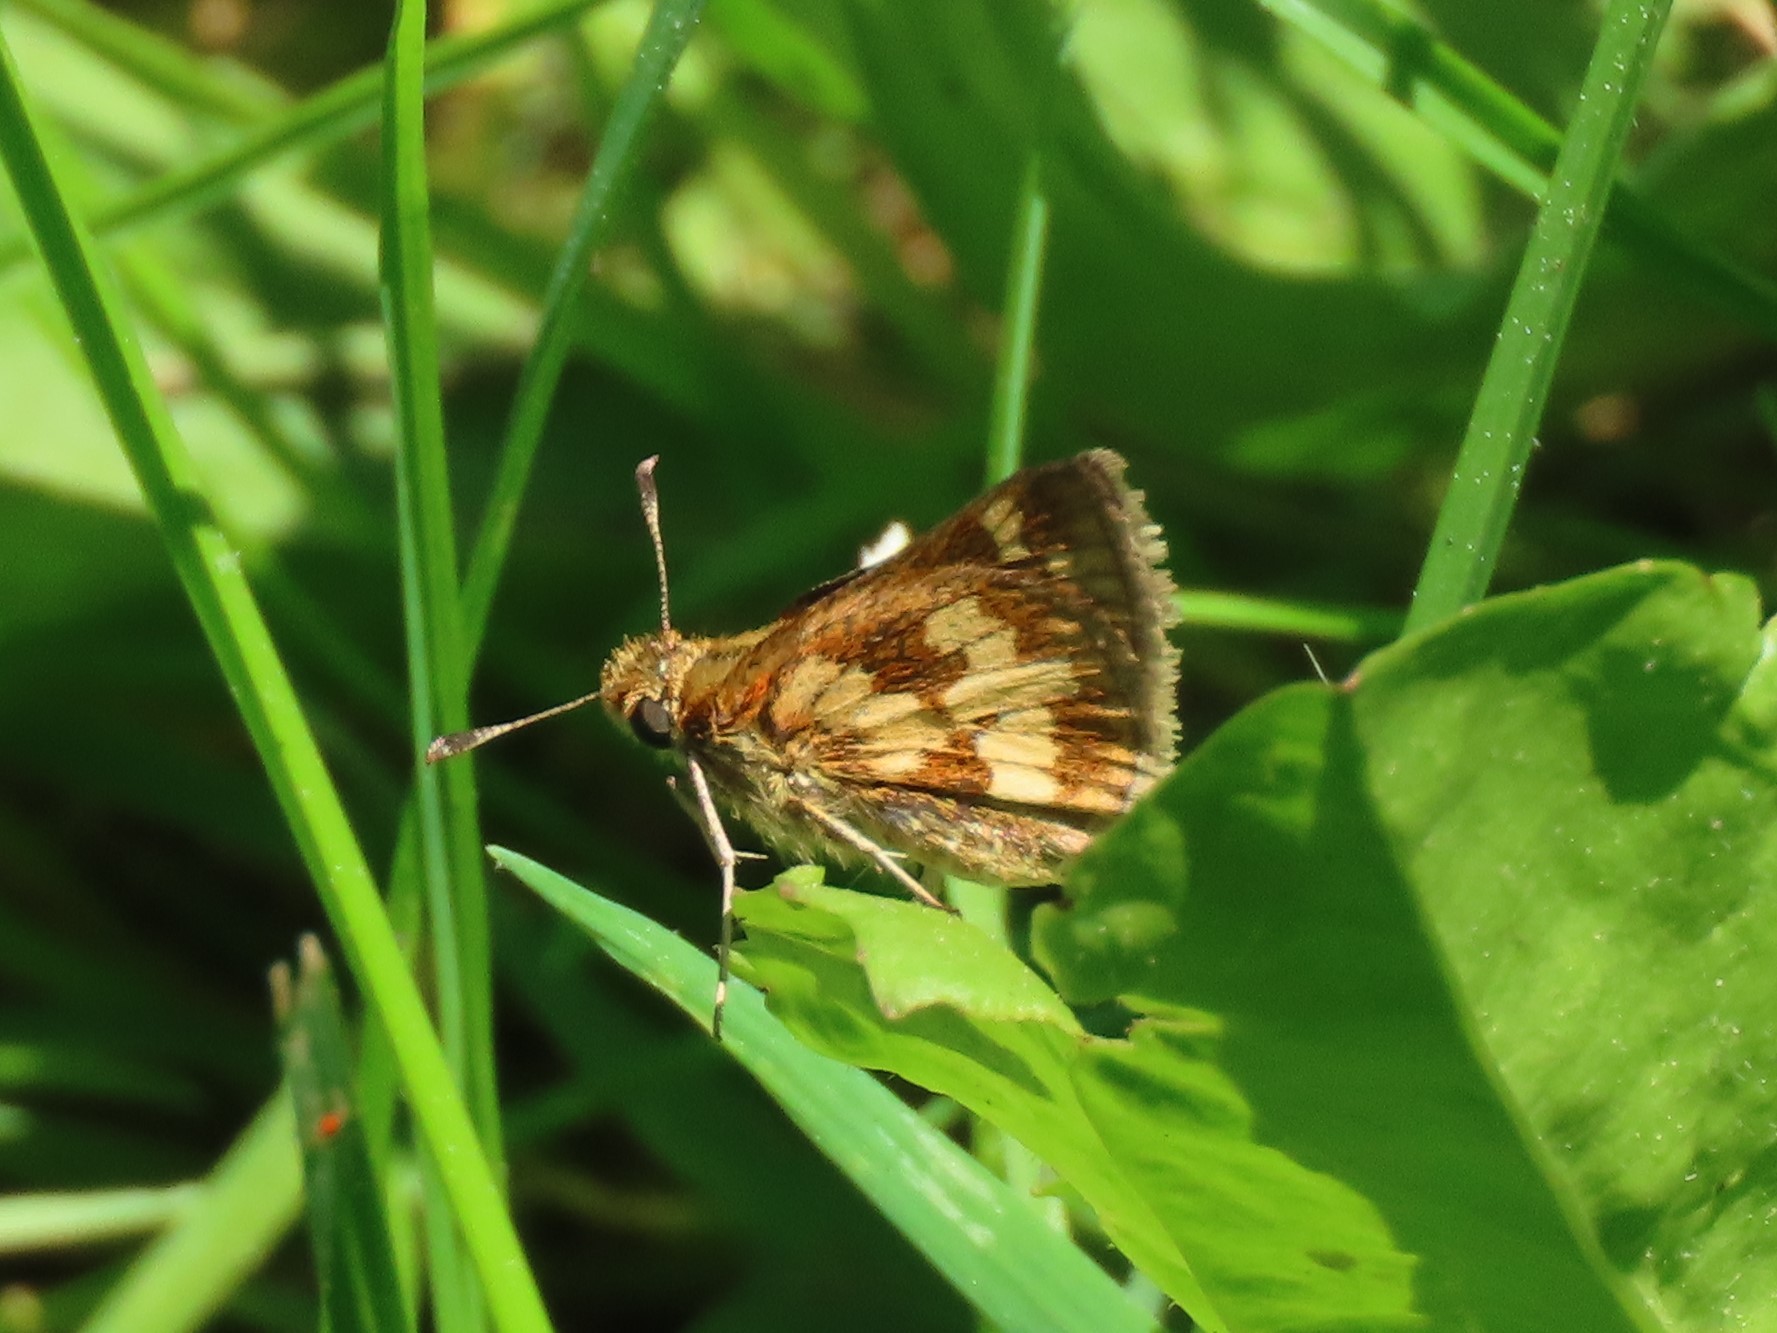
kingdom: Animalia
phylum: Arthropoda
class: Insecta
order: Lepidoptera
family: Hesperiidae
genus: Polites
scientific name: Polites coras
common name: Peck's skipper
